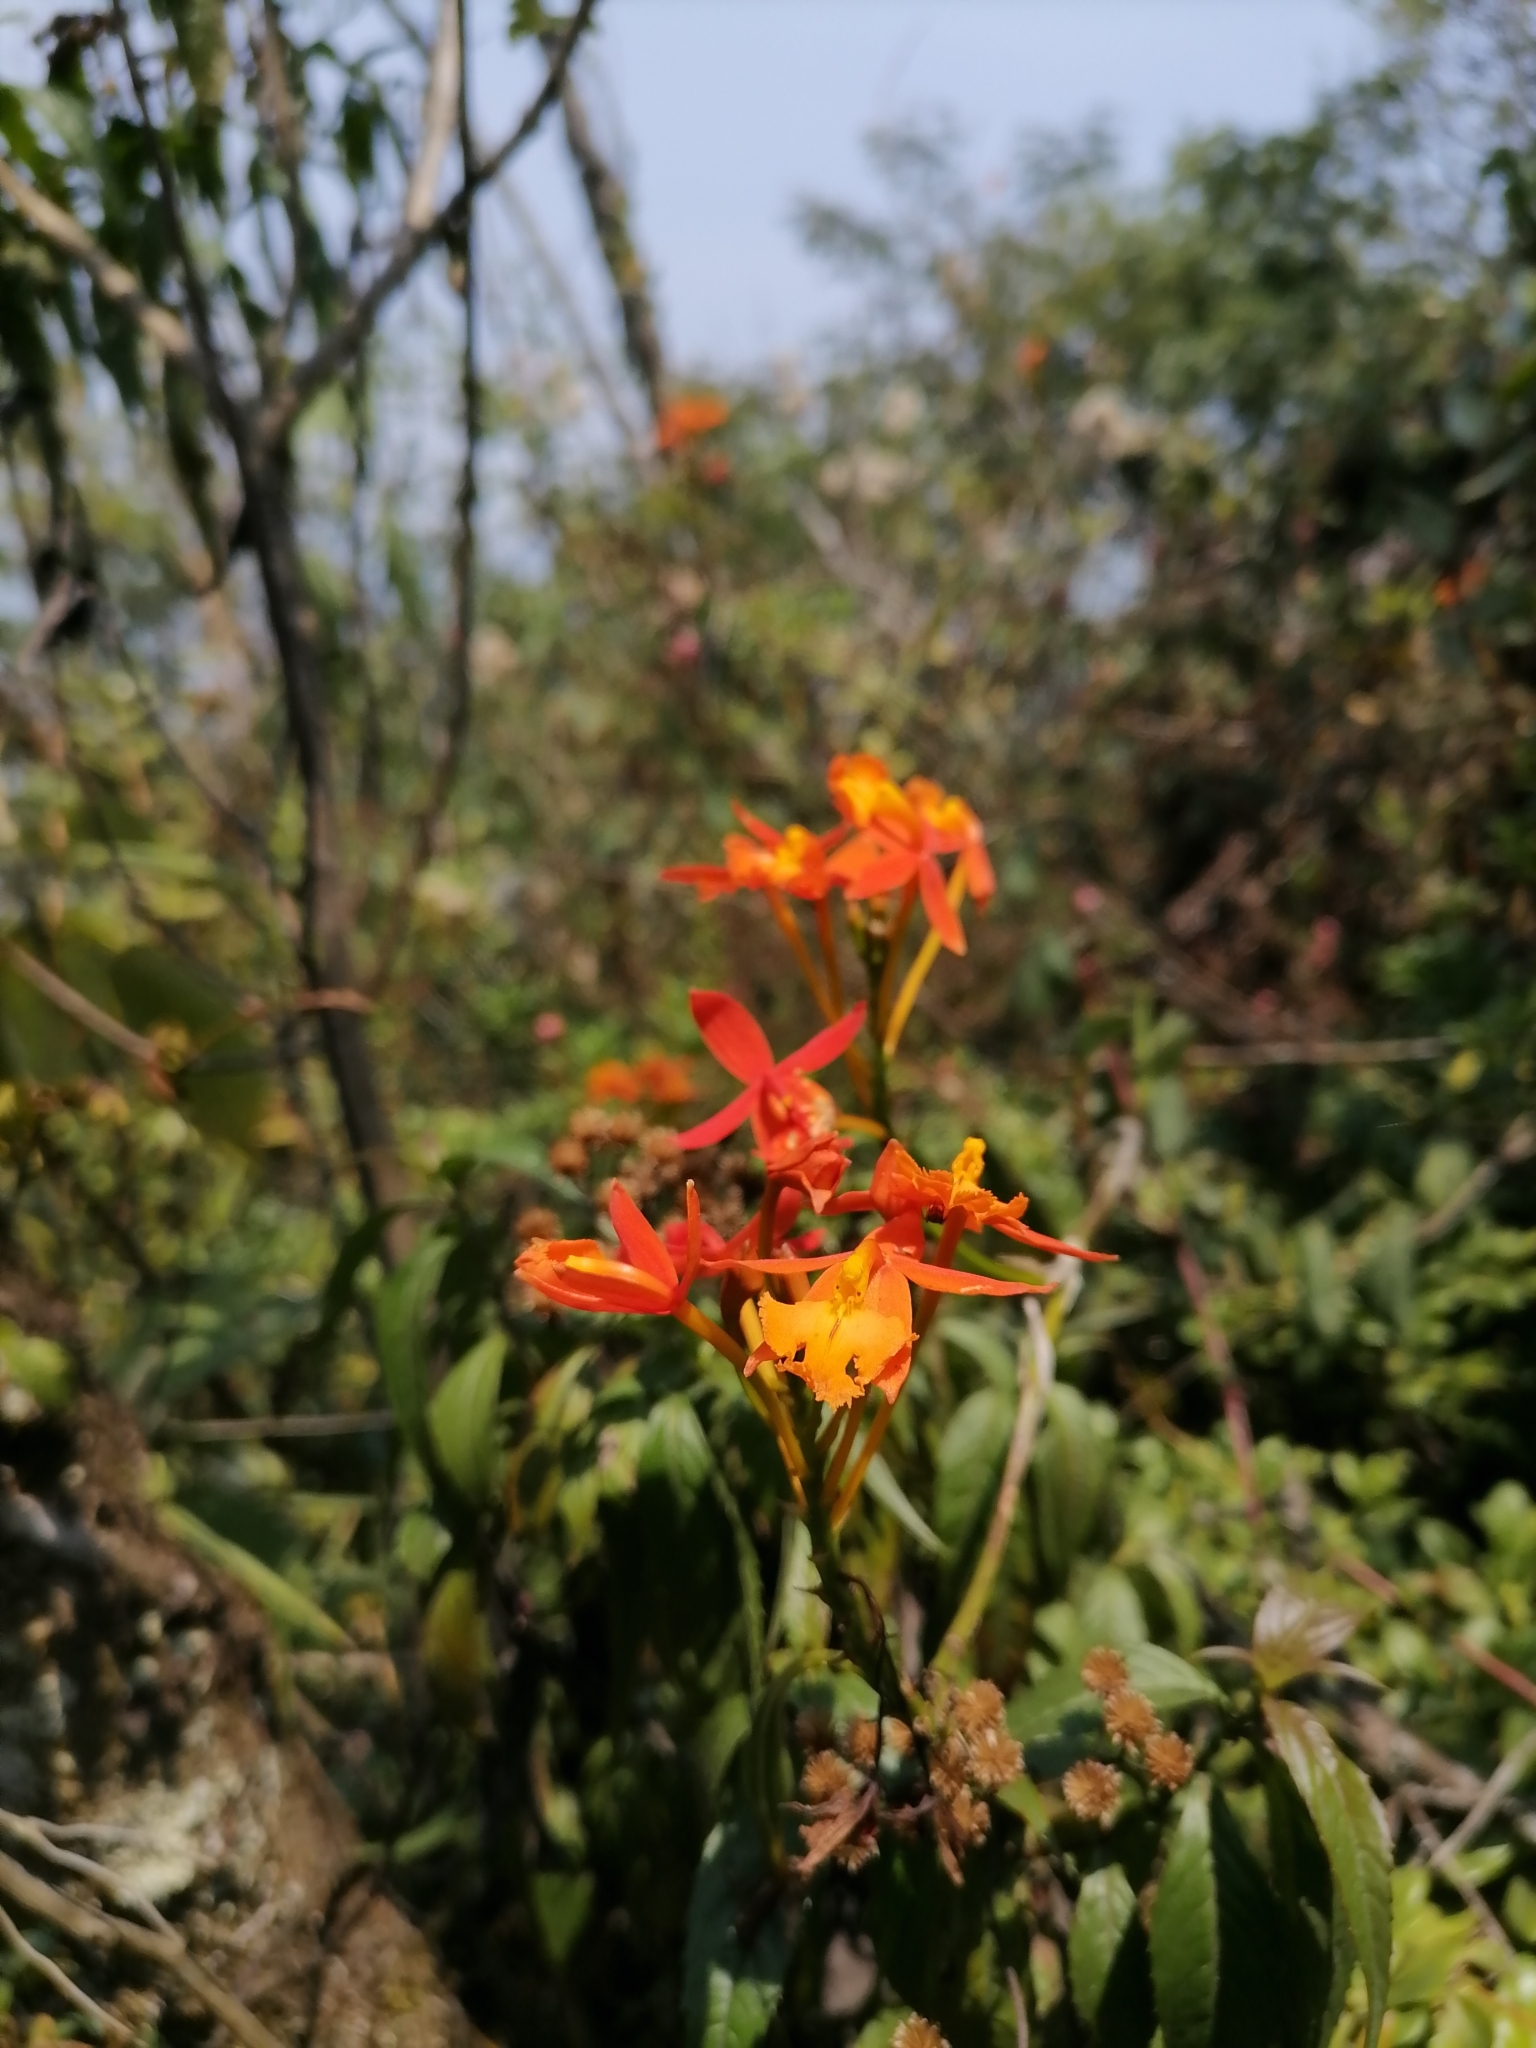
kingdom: Plantae
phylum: Tracheophyta
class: Liliopsida
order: Asparagales
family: Orchidaceae
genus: Epidendrum
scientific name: Epidendrum radicans
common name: Fire star orchid
